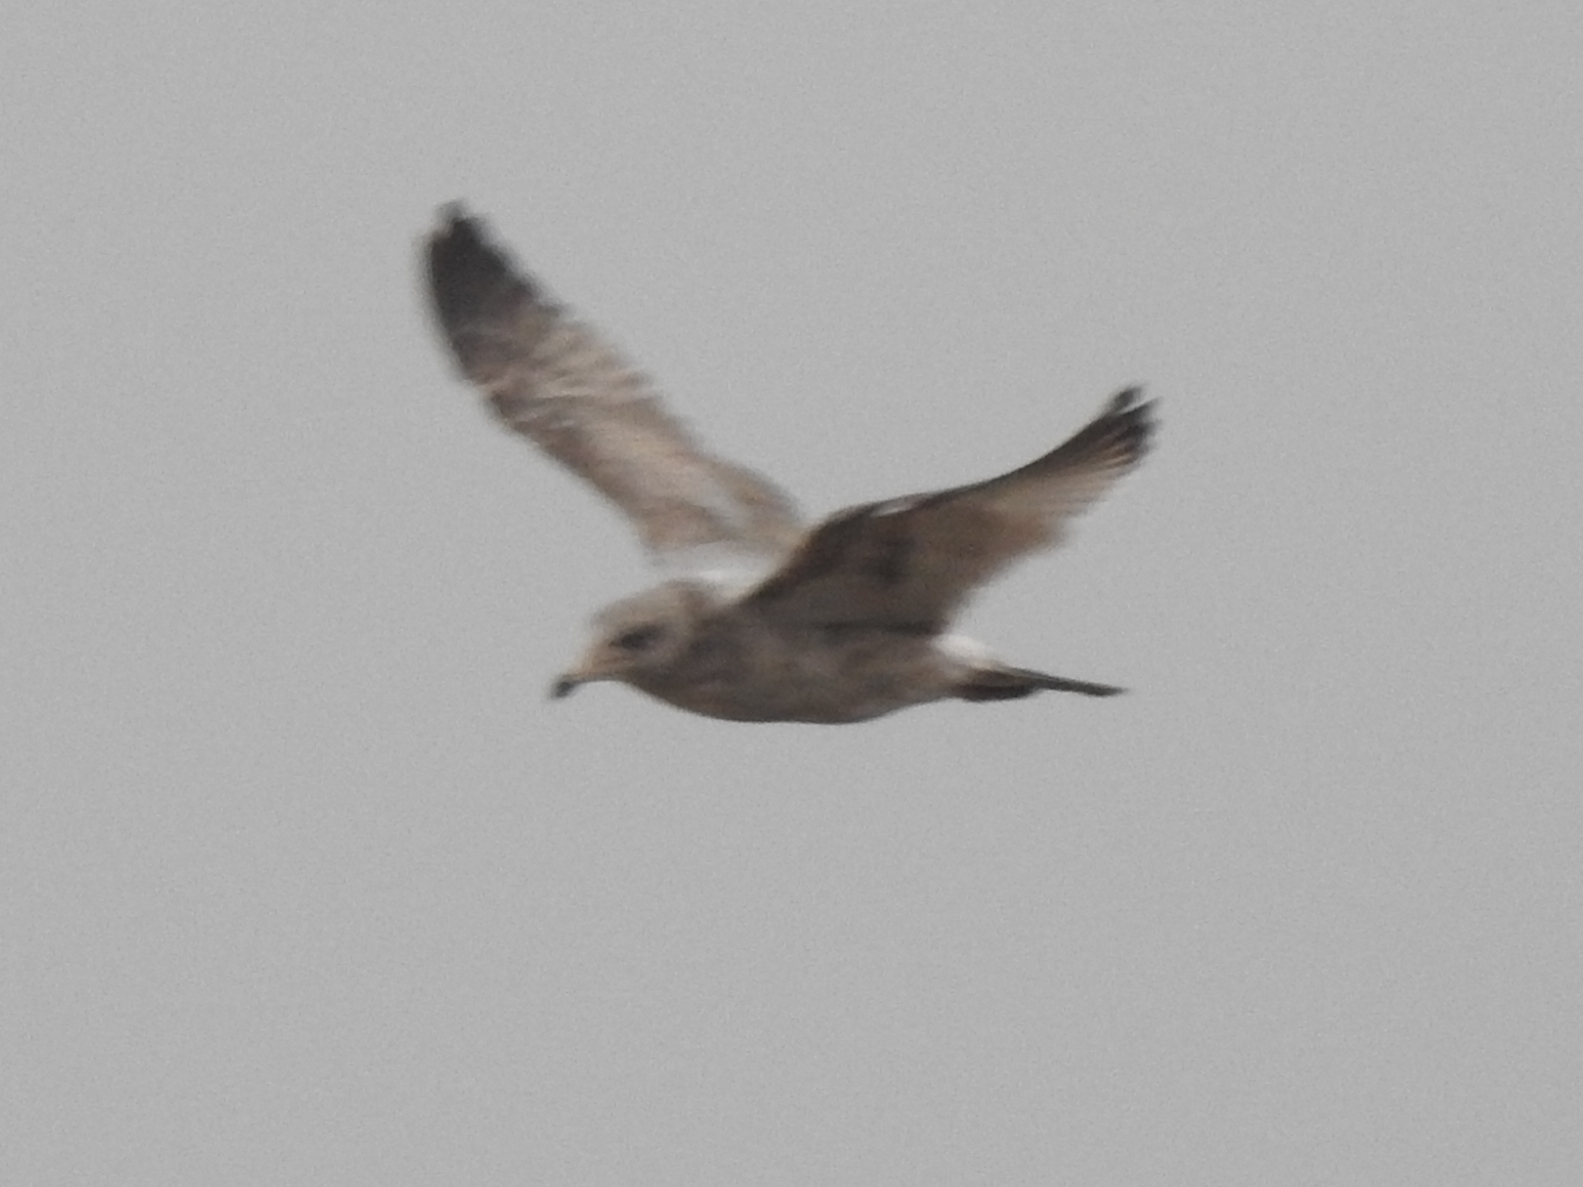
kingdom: Animalia
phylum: Chordata
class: Aves
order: Charadriiformes
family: Laridae
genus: Larus
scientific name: Larus argentatus
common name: Herring gull
